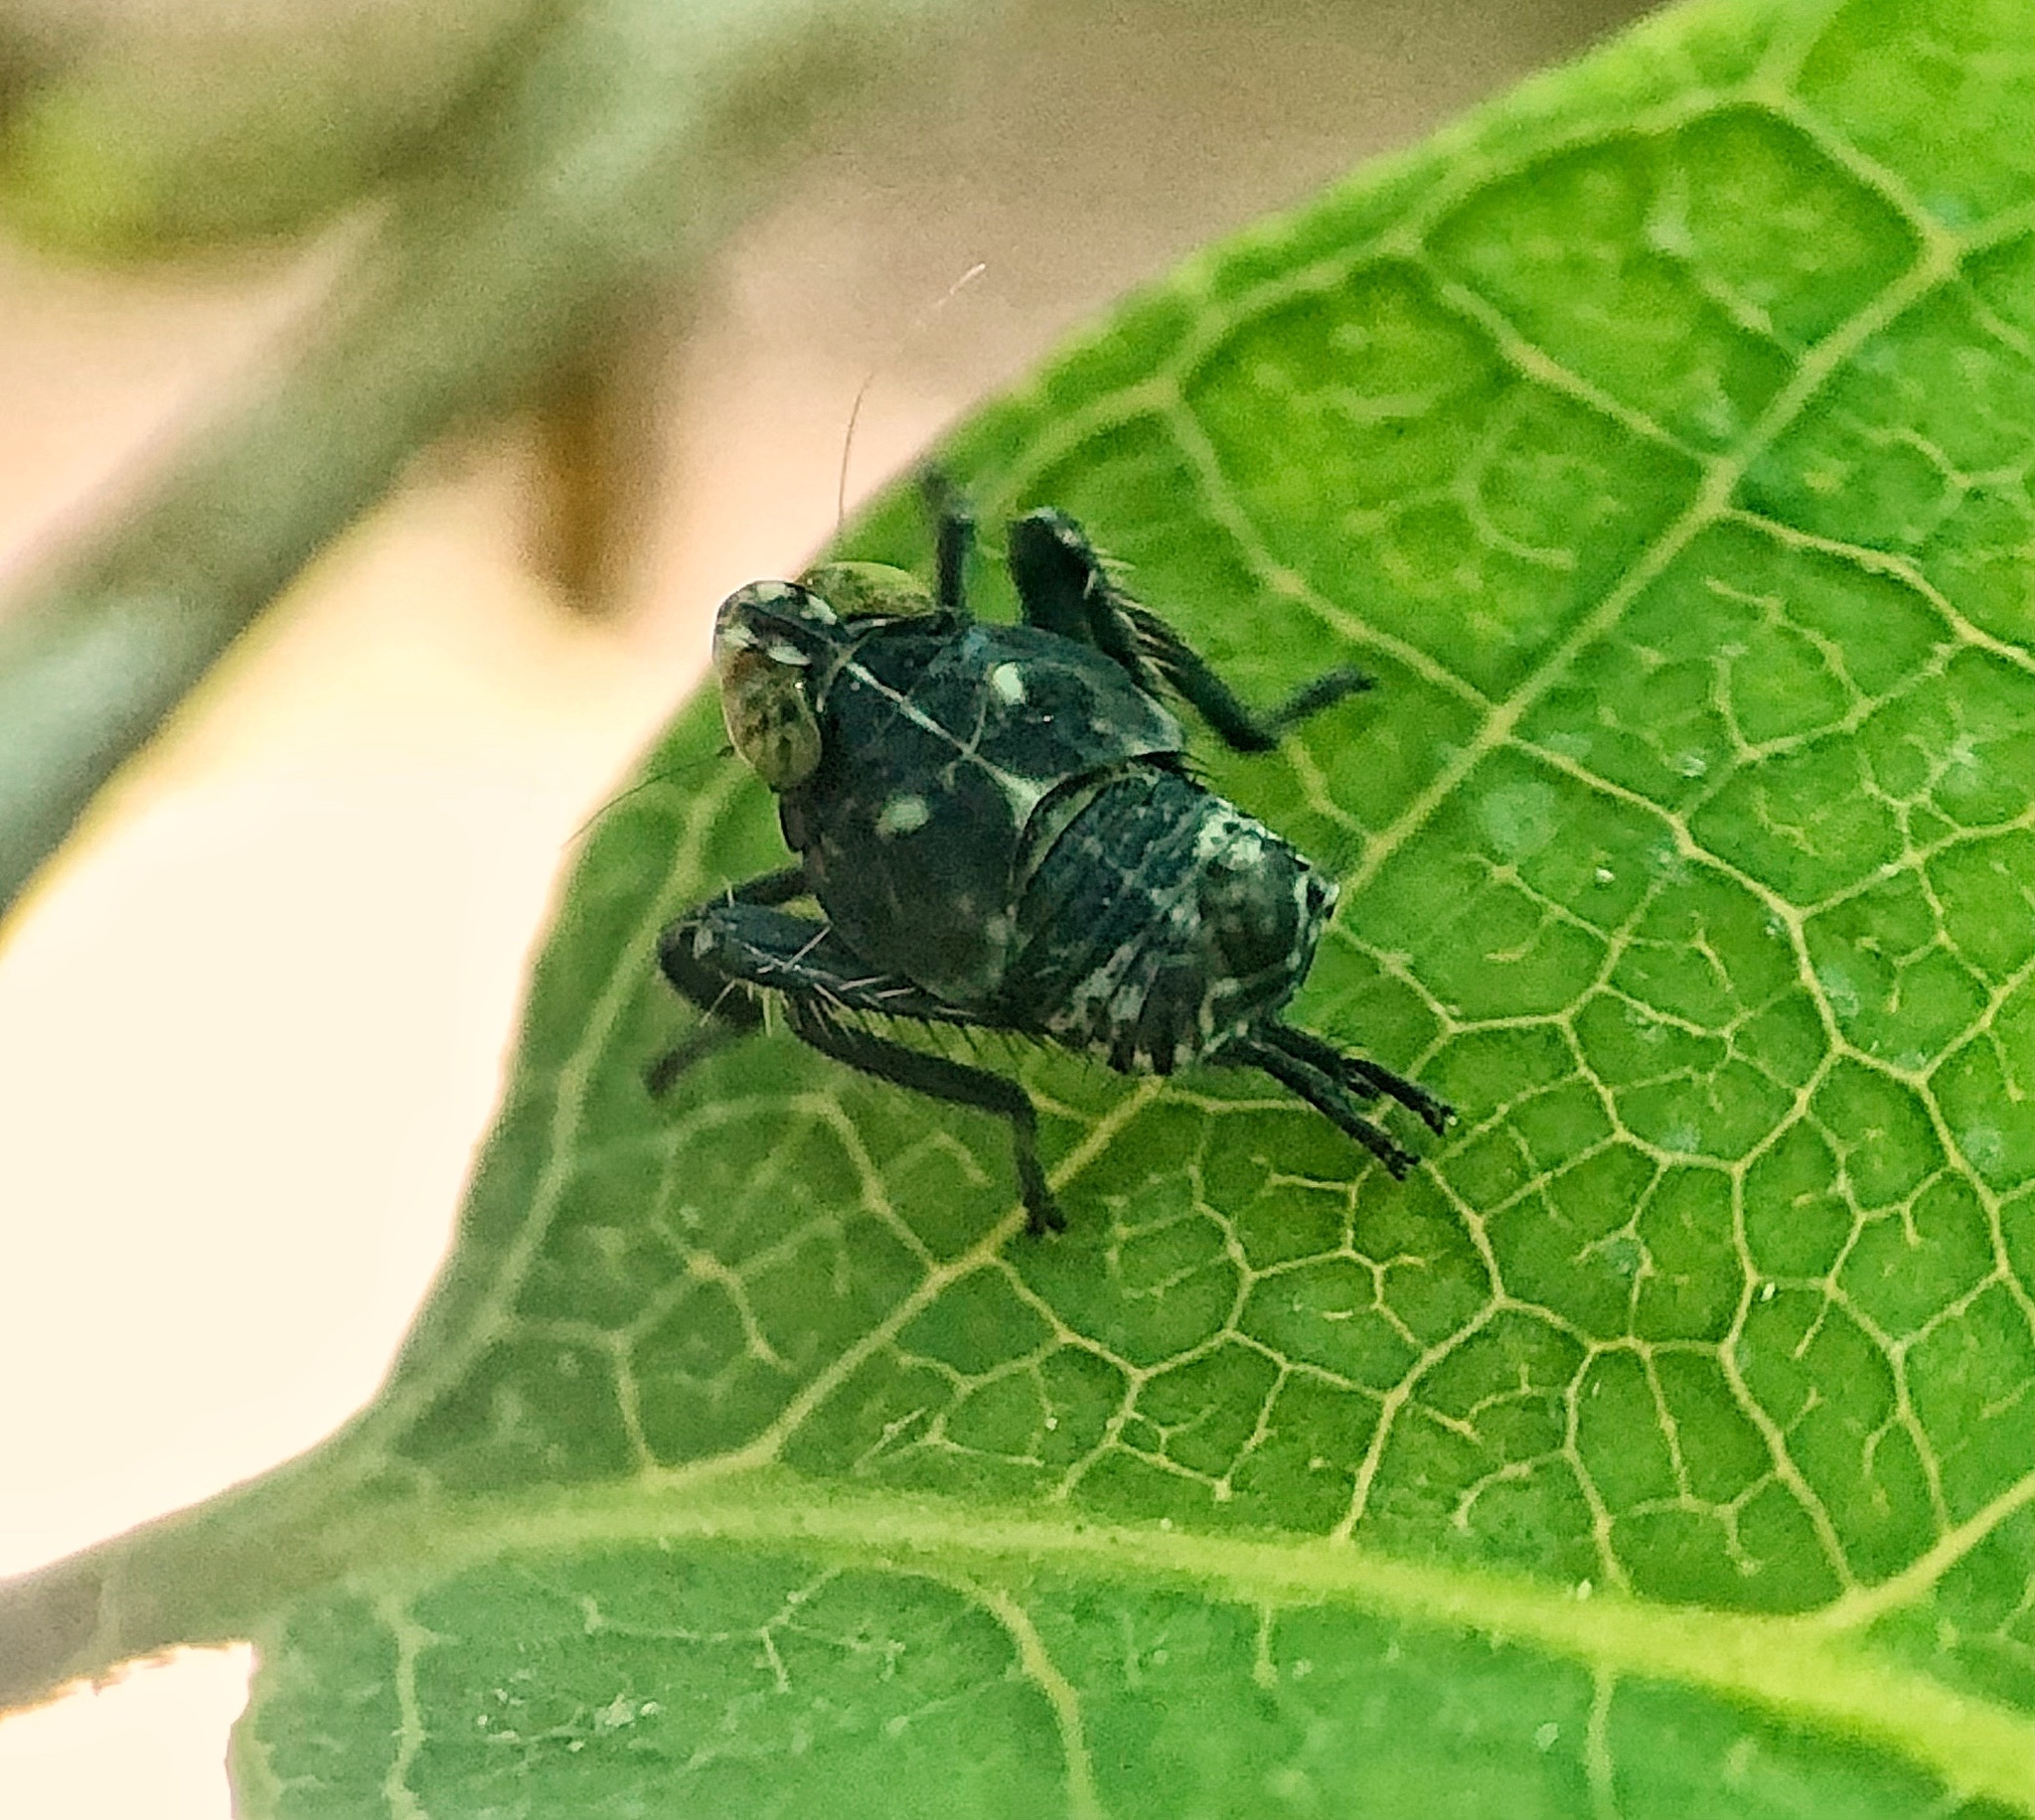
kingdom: Animalia
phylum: Arthropoda
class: Insecta
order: Hemiptera
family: Cicadellidae
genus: Jikradia
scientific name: Jikradia olitoria
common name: Coppery leafhopper
